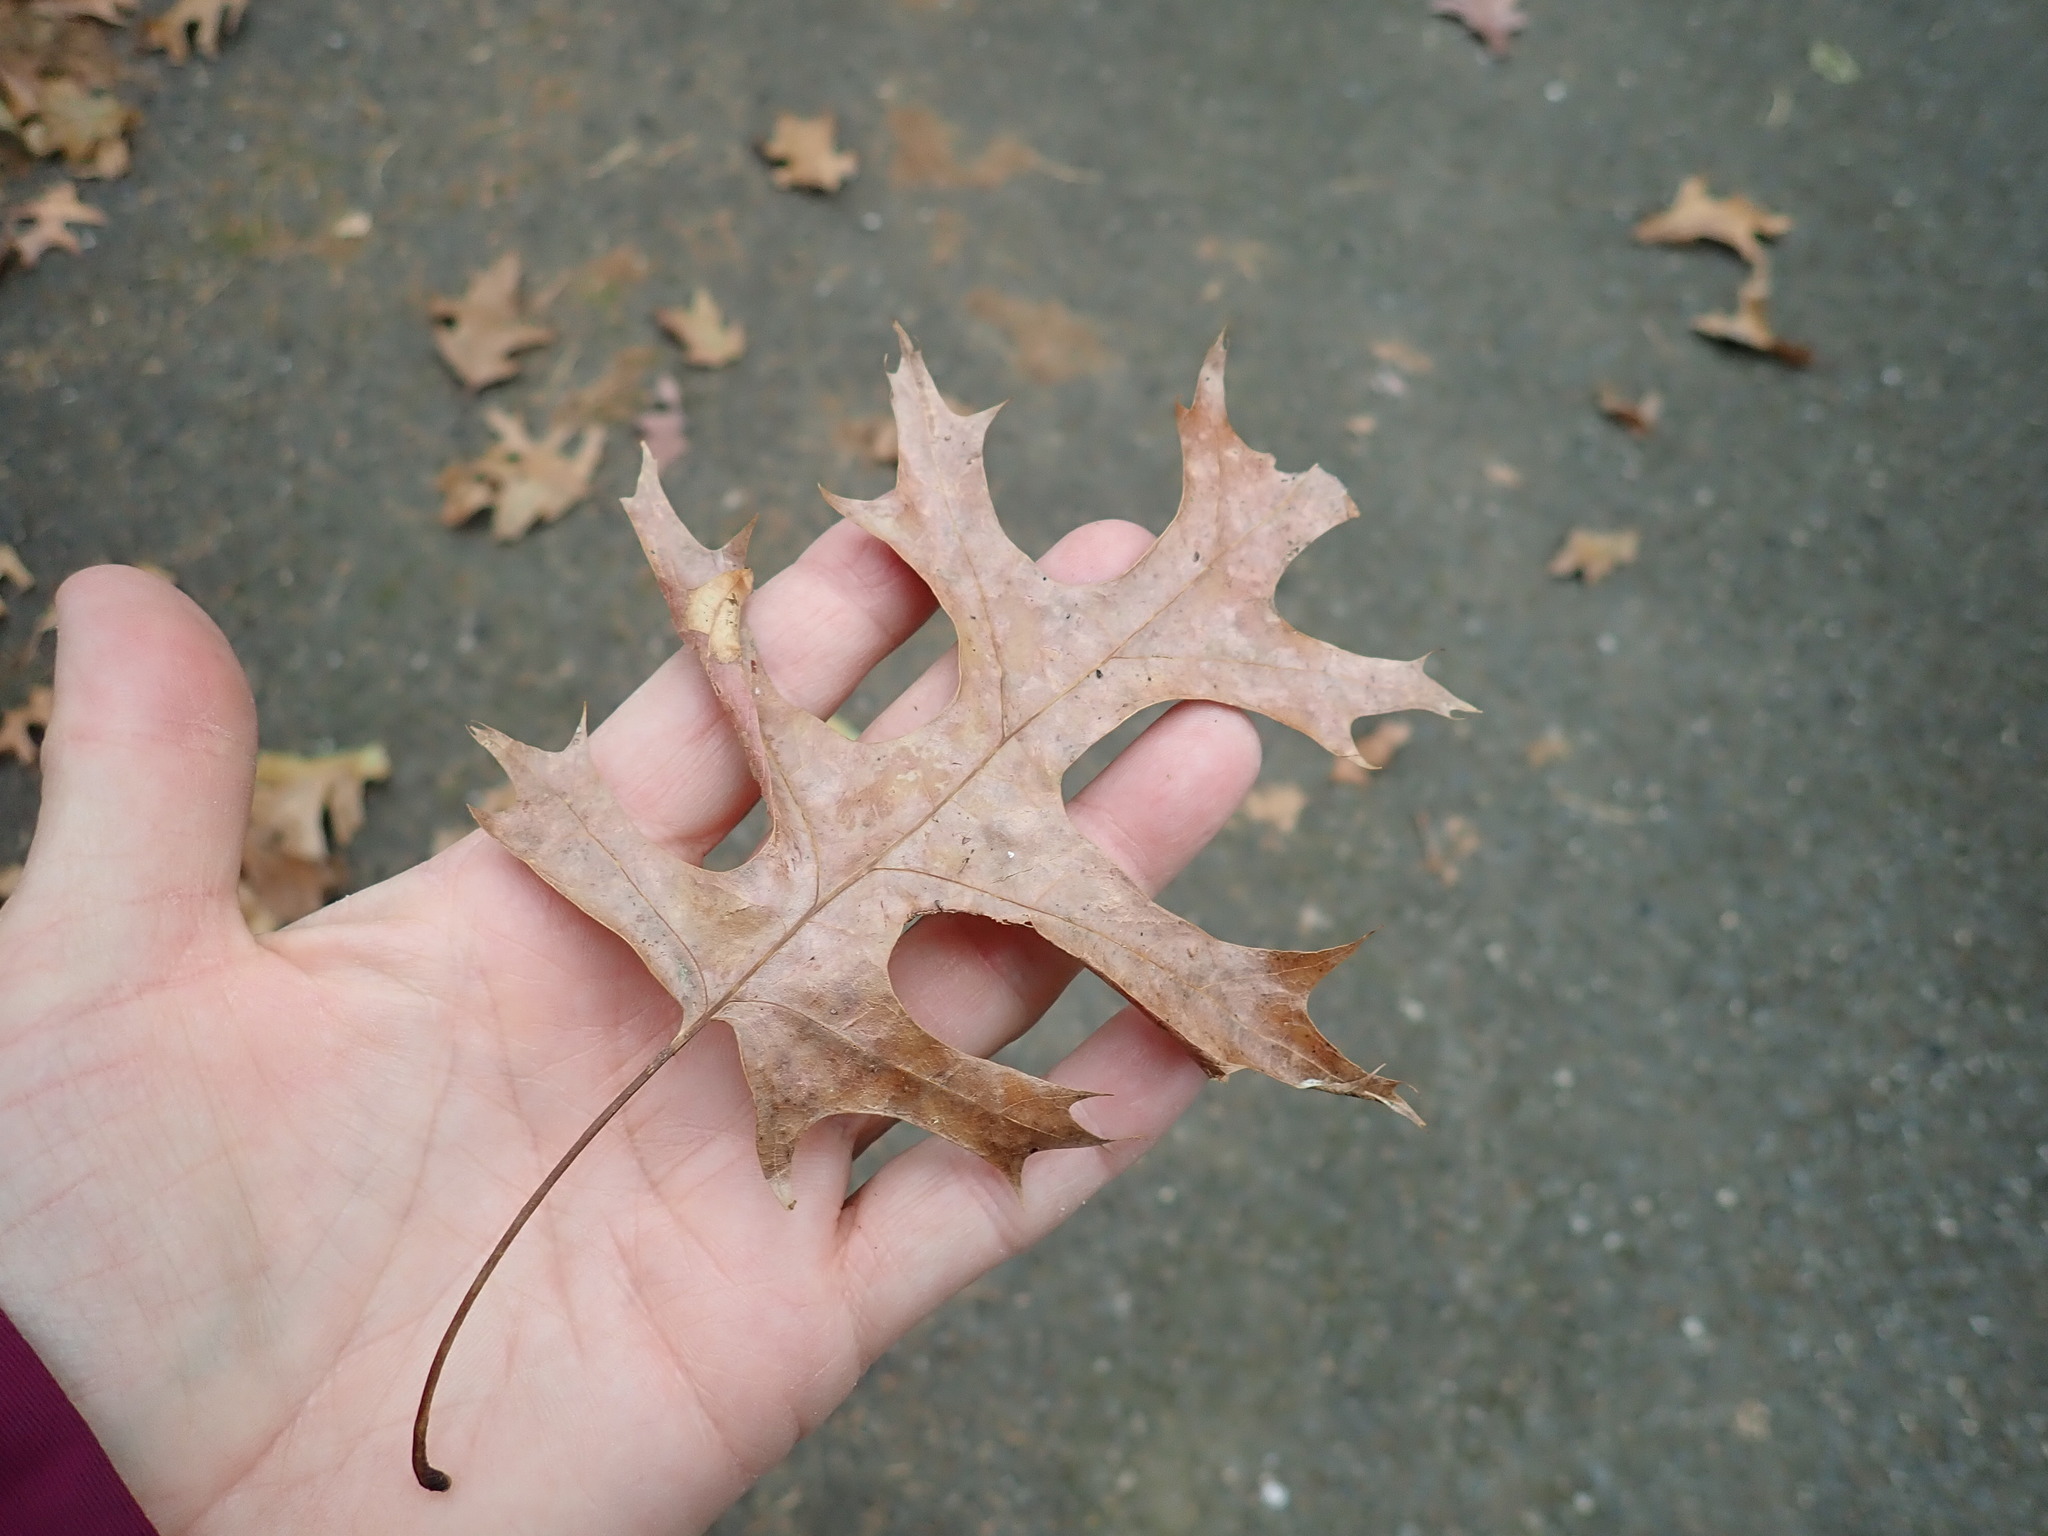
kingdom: Plantae
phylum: Tracheophyta
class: Magnoliopsida
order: Fagales
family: Fagaceae
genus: Quercus
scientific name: Quercus coccinea
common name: Scarlet oak
